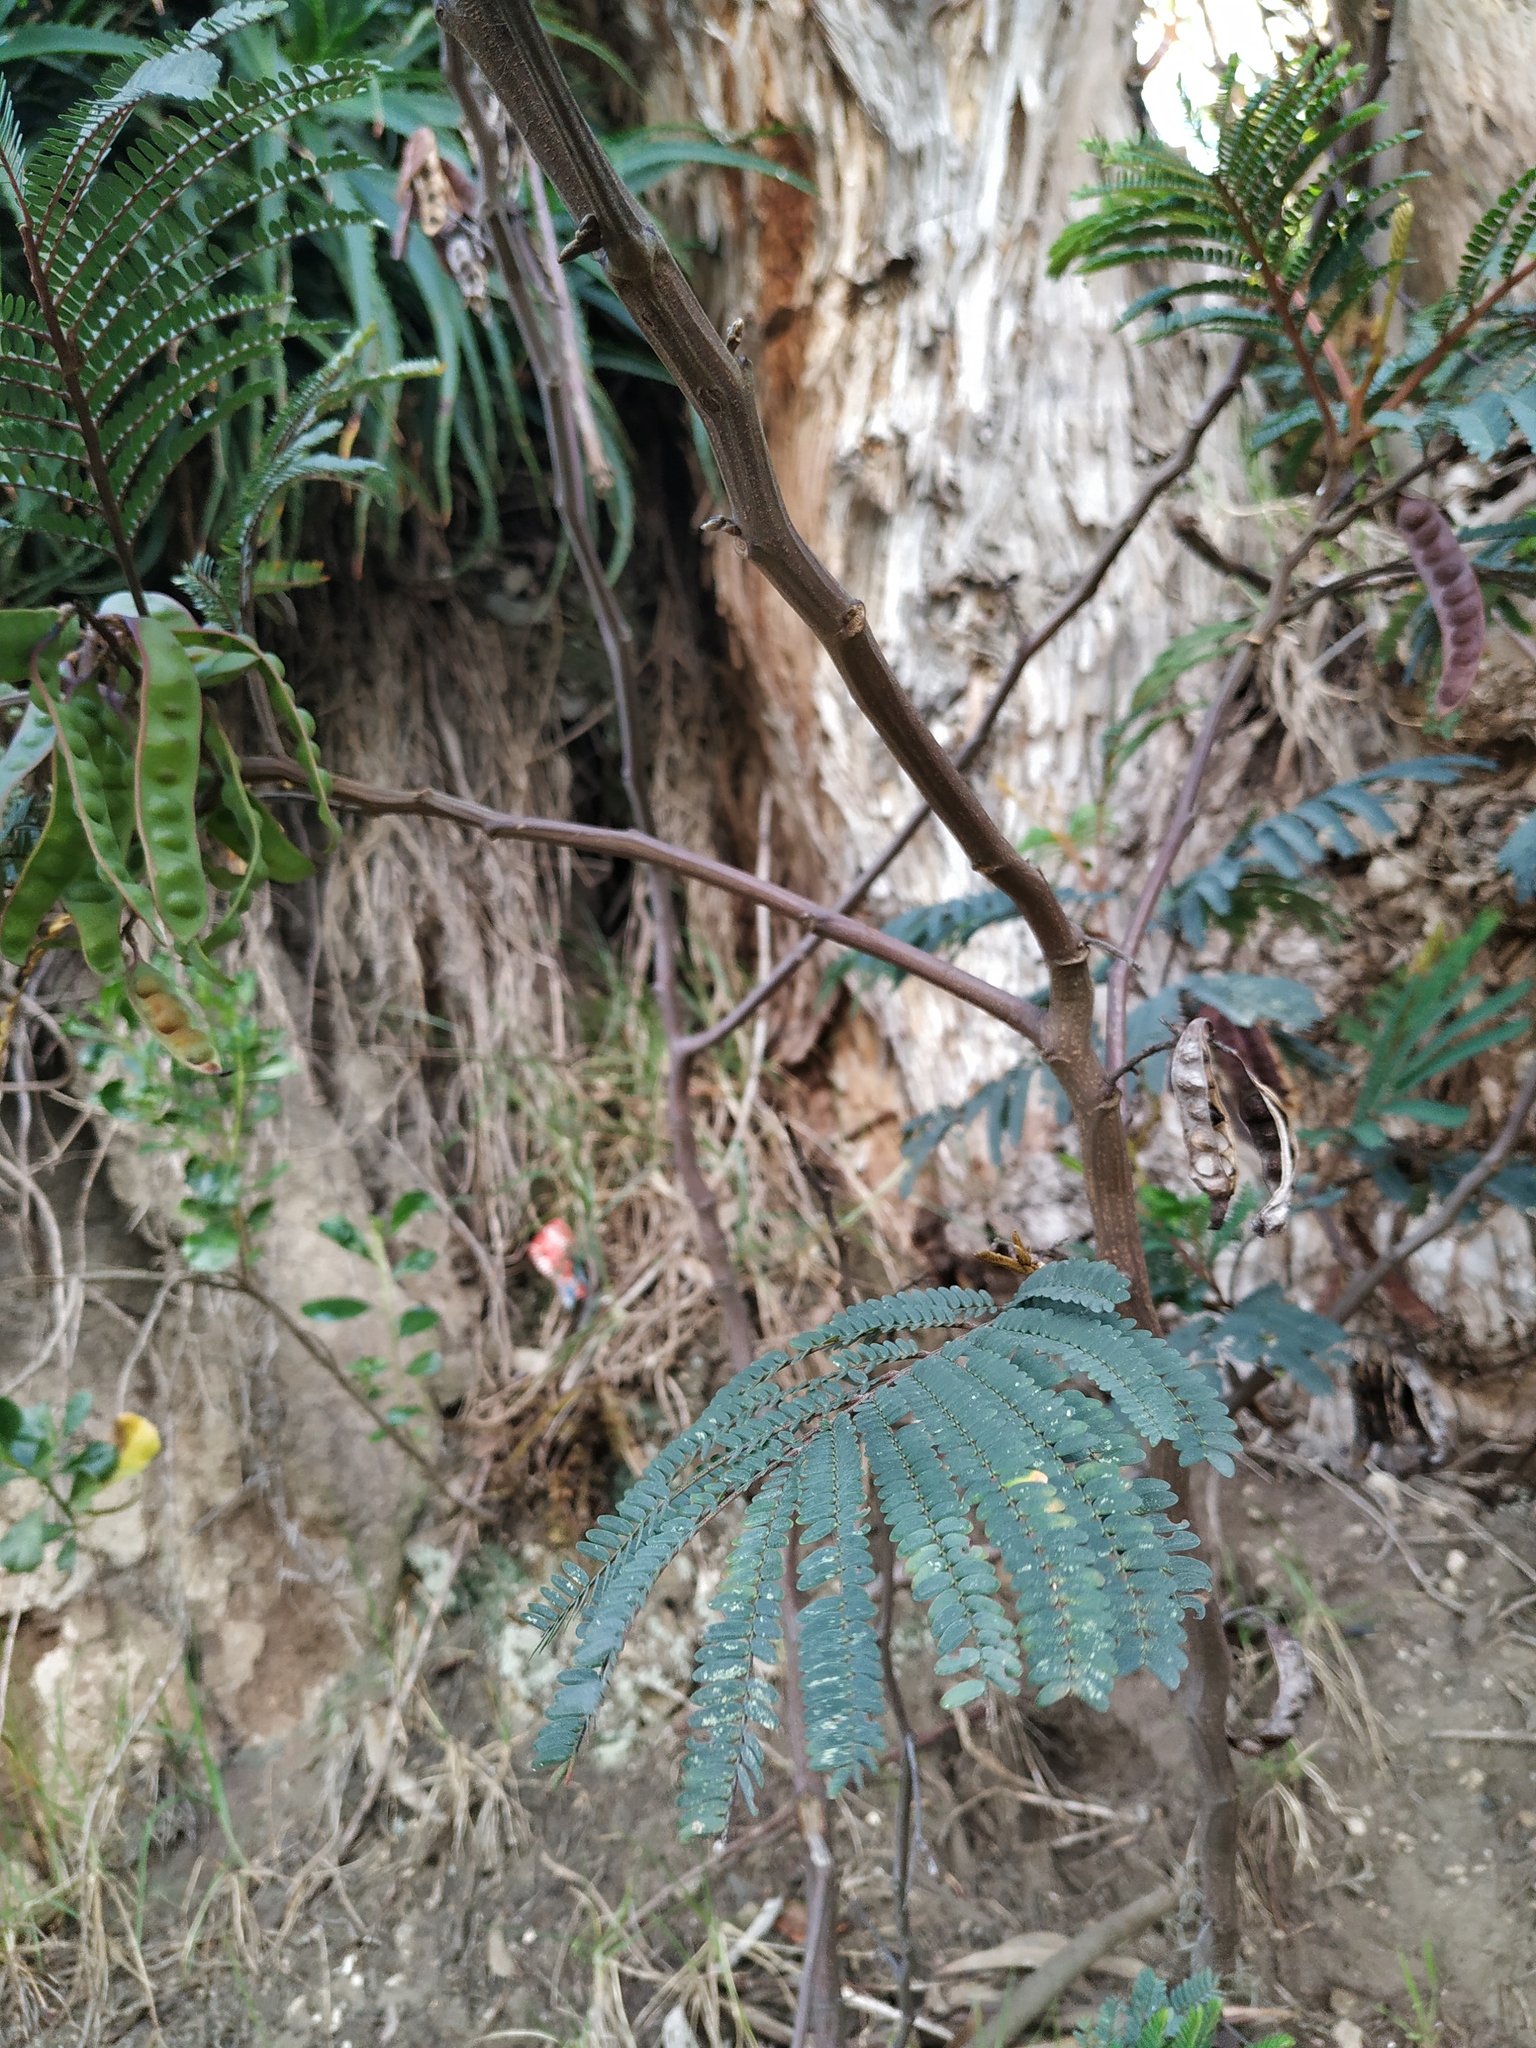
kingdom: Plantae
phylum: Tracheophyta
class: Magnoliopsida
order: Fabales
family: Fabaceae
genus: Paraserianthes
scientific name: Paraserianthes lophantha
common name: Plume albizia
